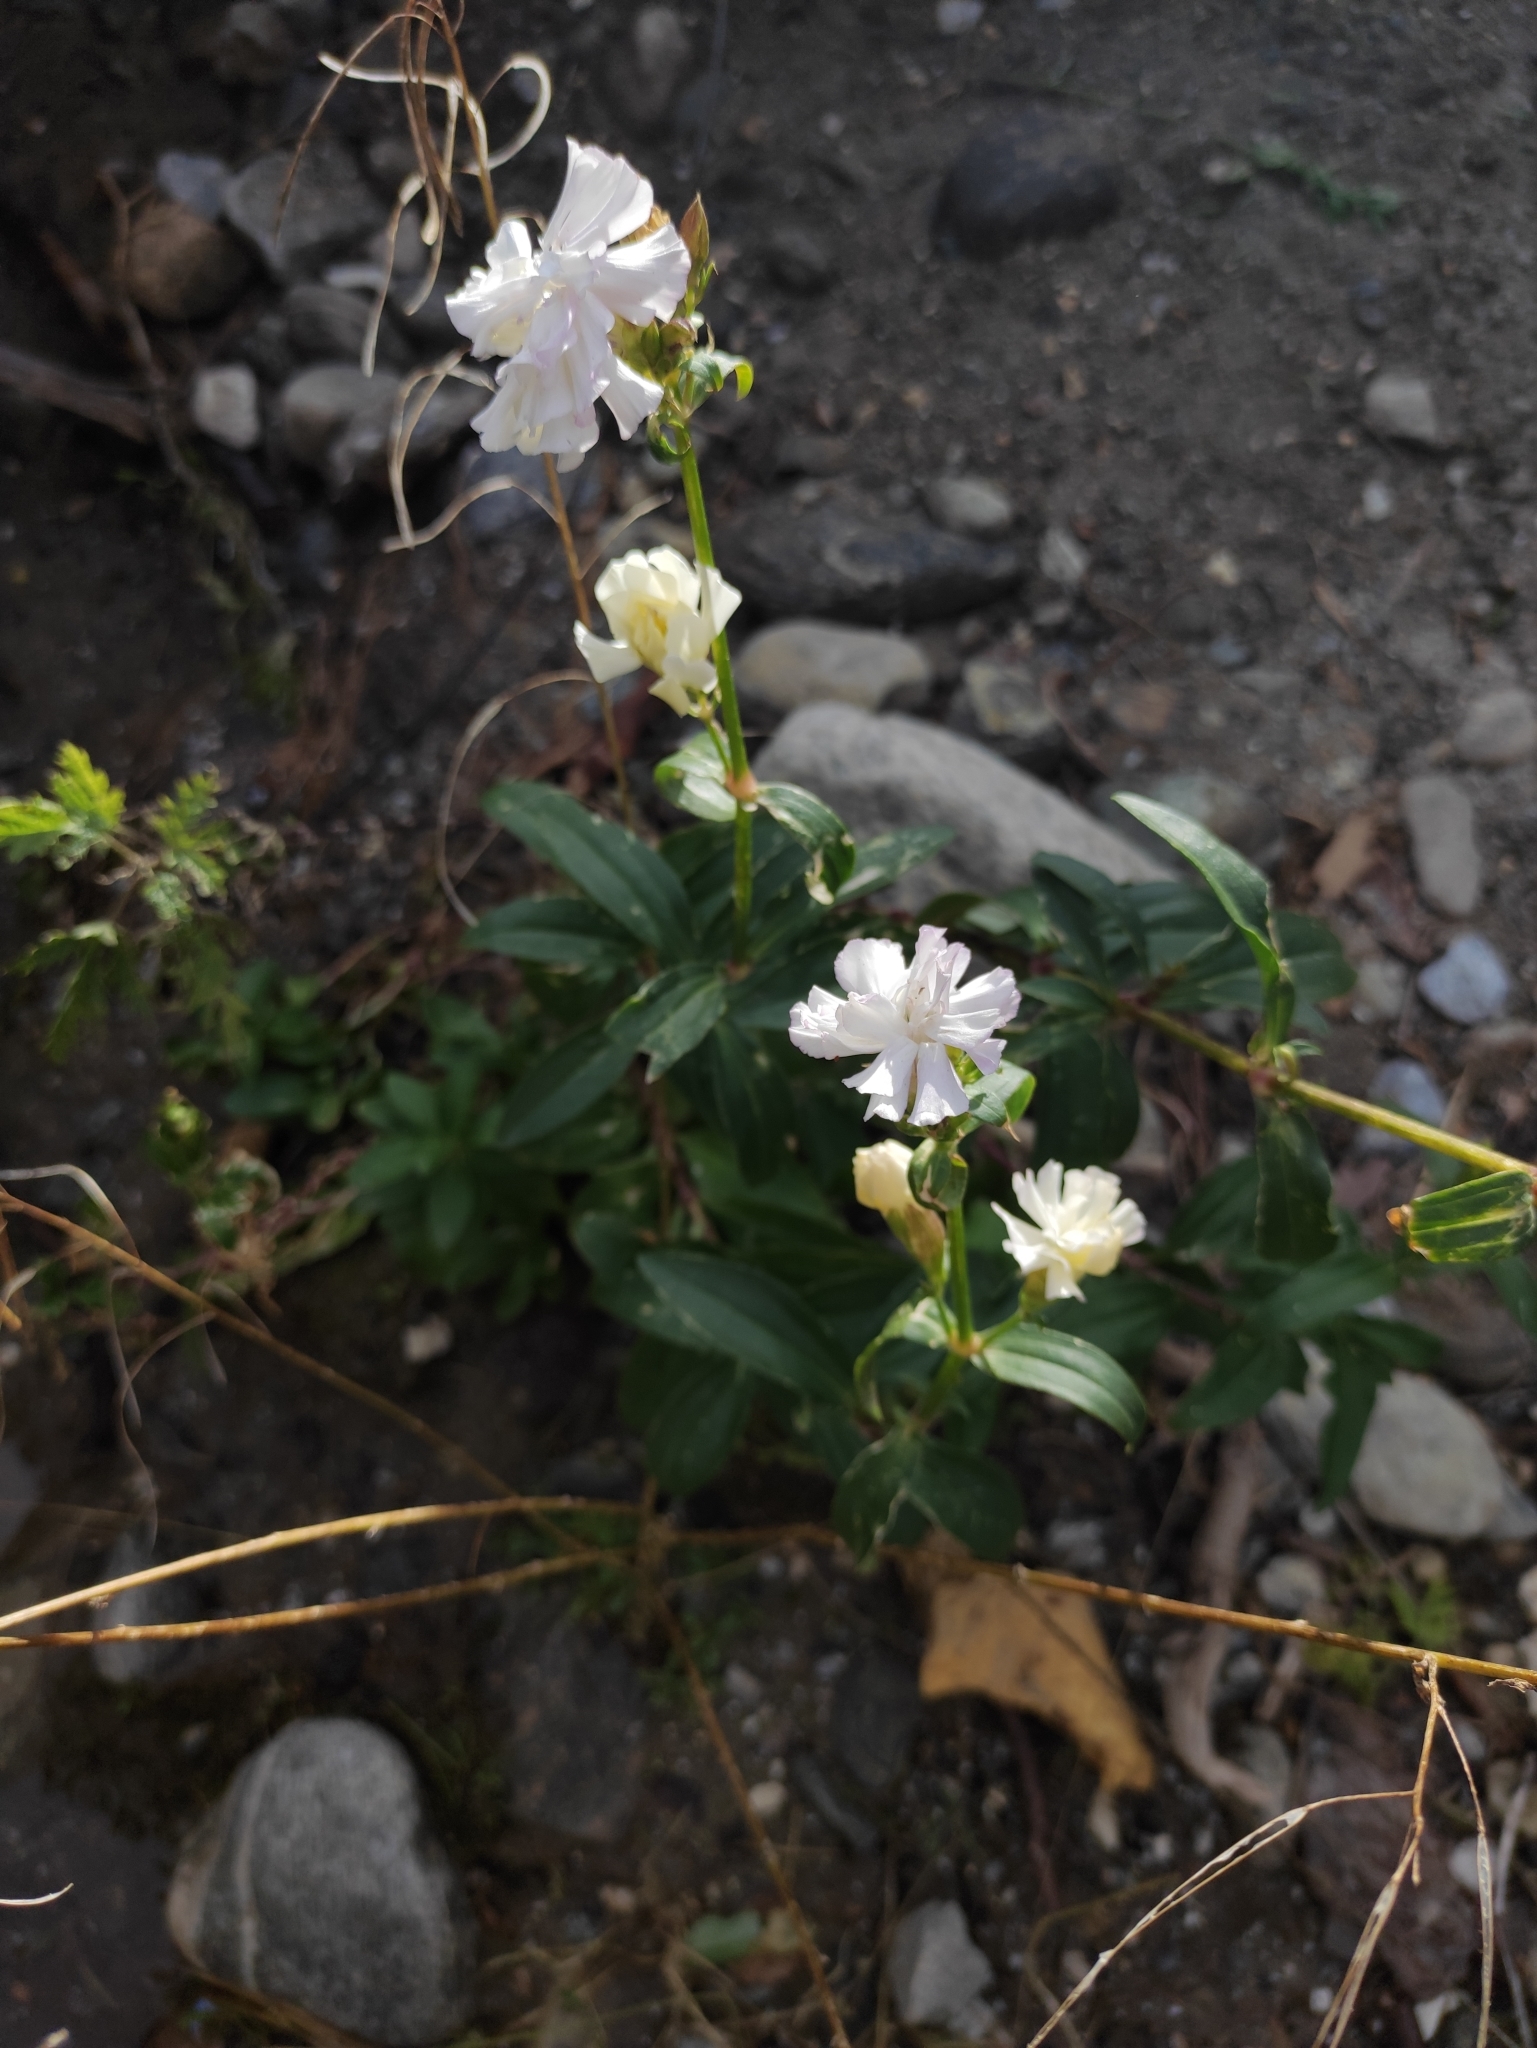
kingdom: Plantae
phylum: Tracheophyta
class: Magnoliopsida
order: Caryophyllales
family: Caryophyllaceae
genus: Saponaria
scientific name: Saponaria officinalis
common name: Soapwort
